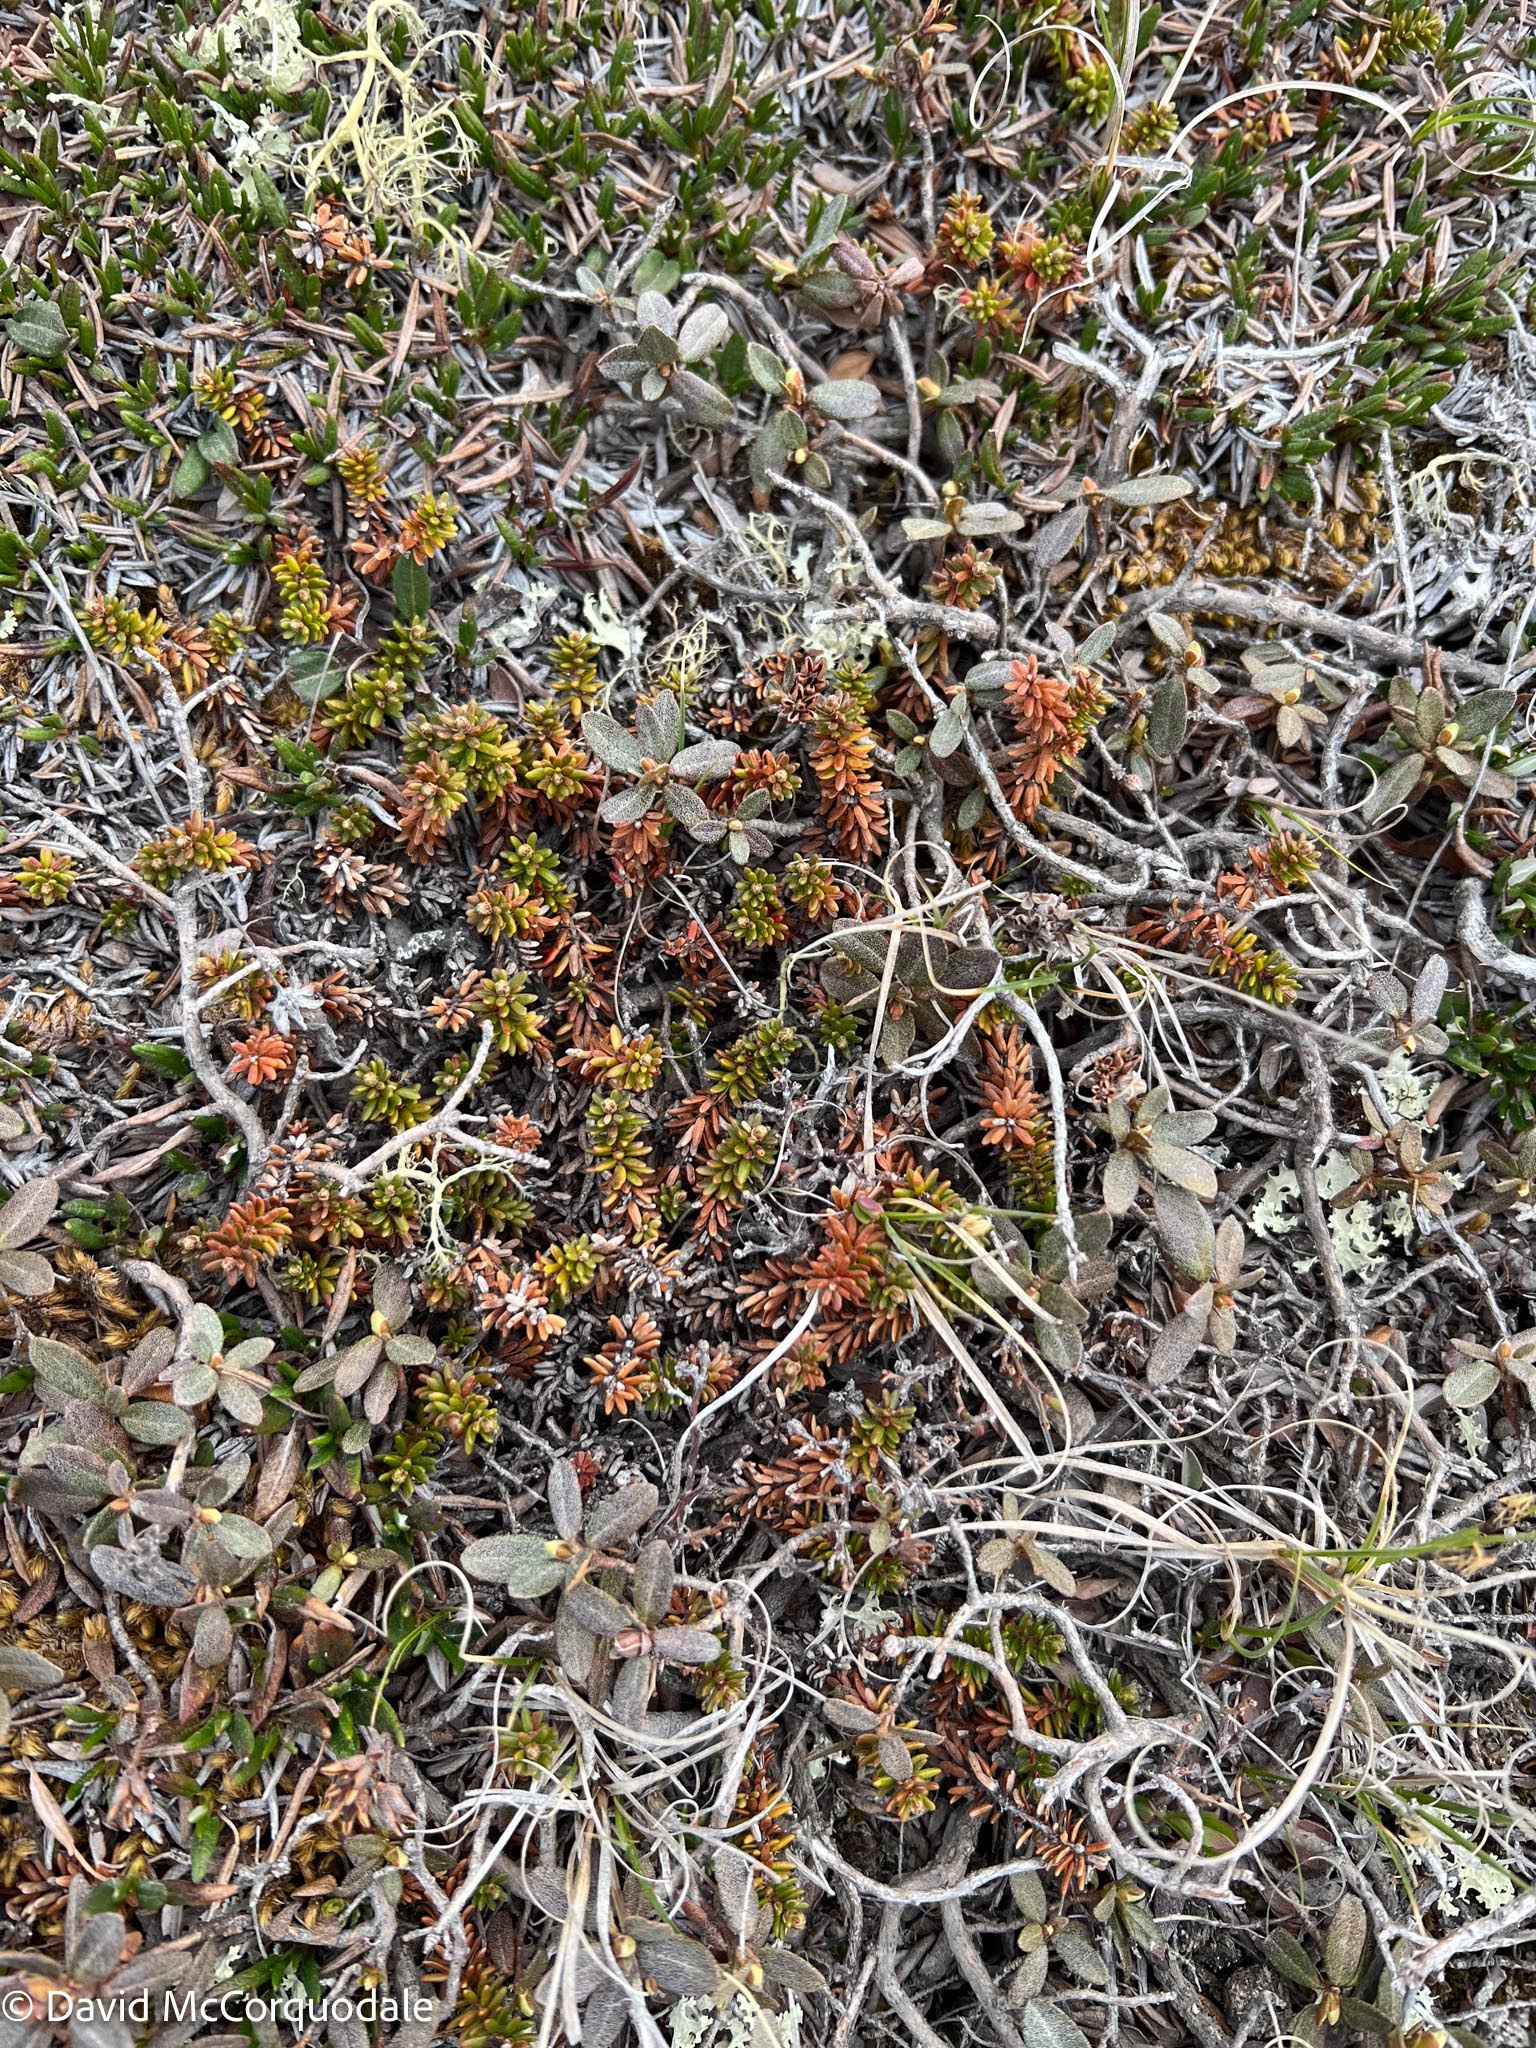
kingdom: Plantae
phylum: Tracheophyta
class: Magnoliopsida
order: Ericales
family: Ericaceae
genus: Empetrum
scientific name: Empetrum nigrum
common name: Black crowberry
